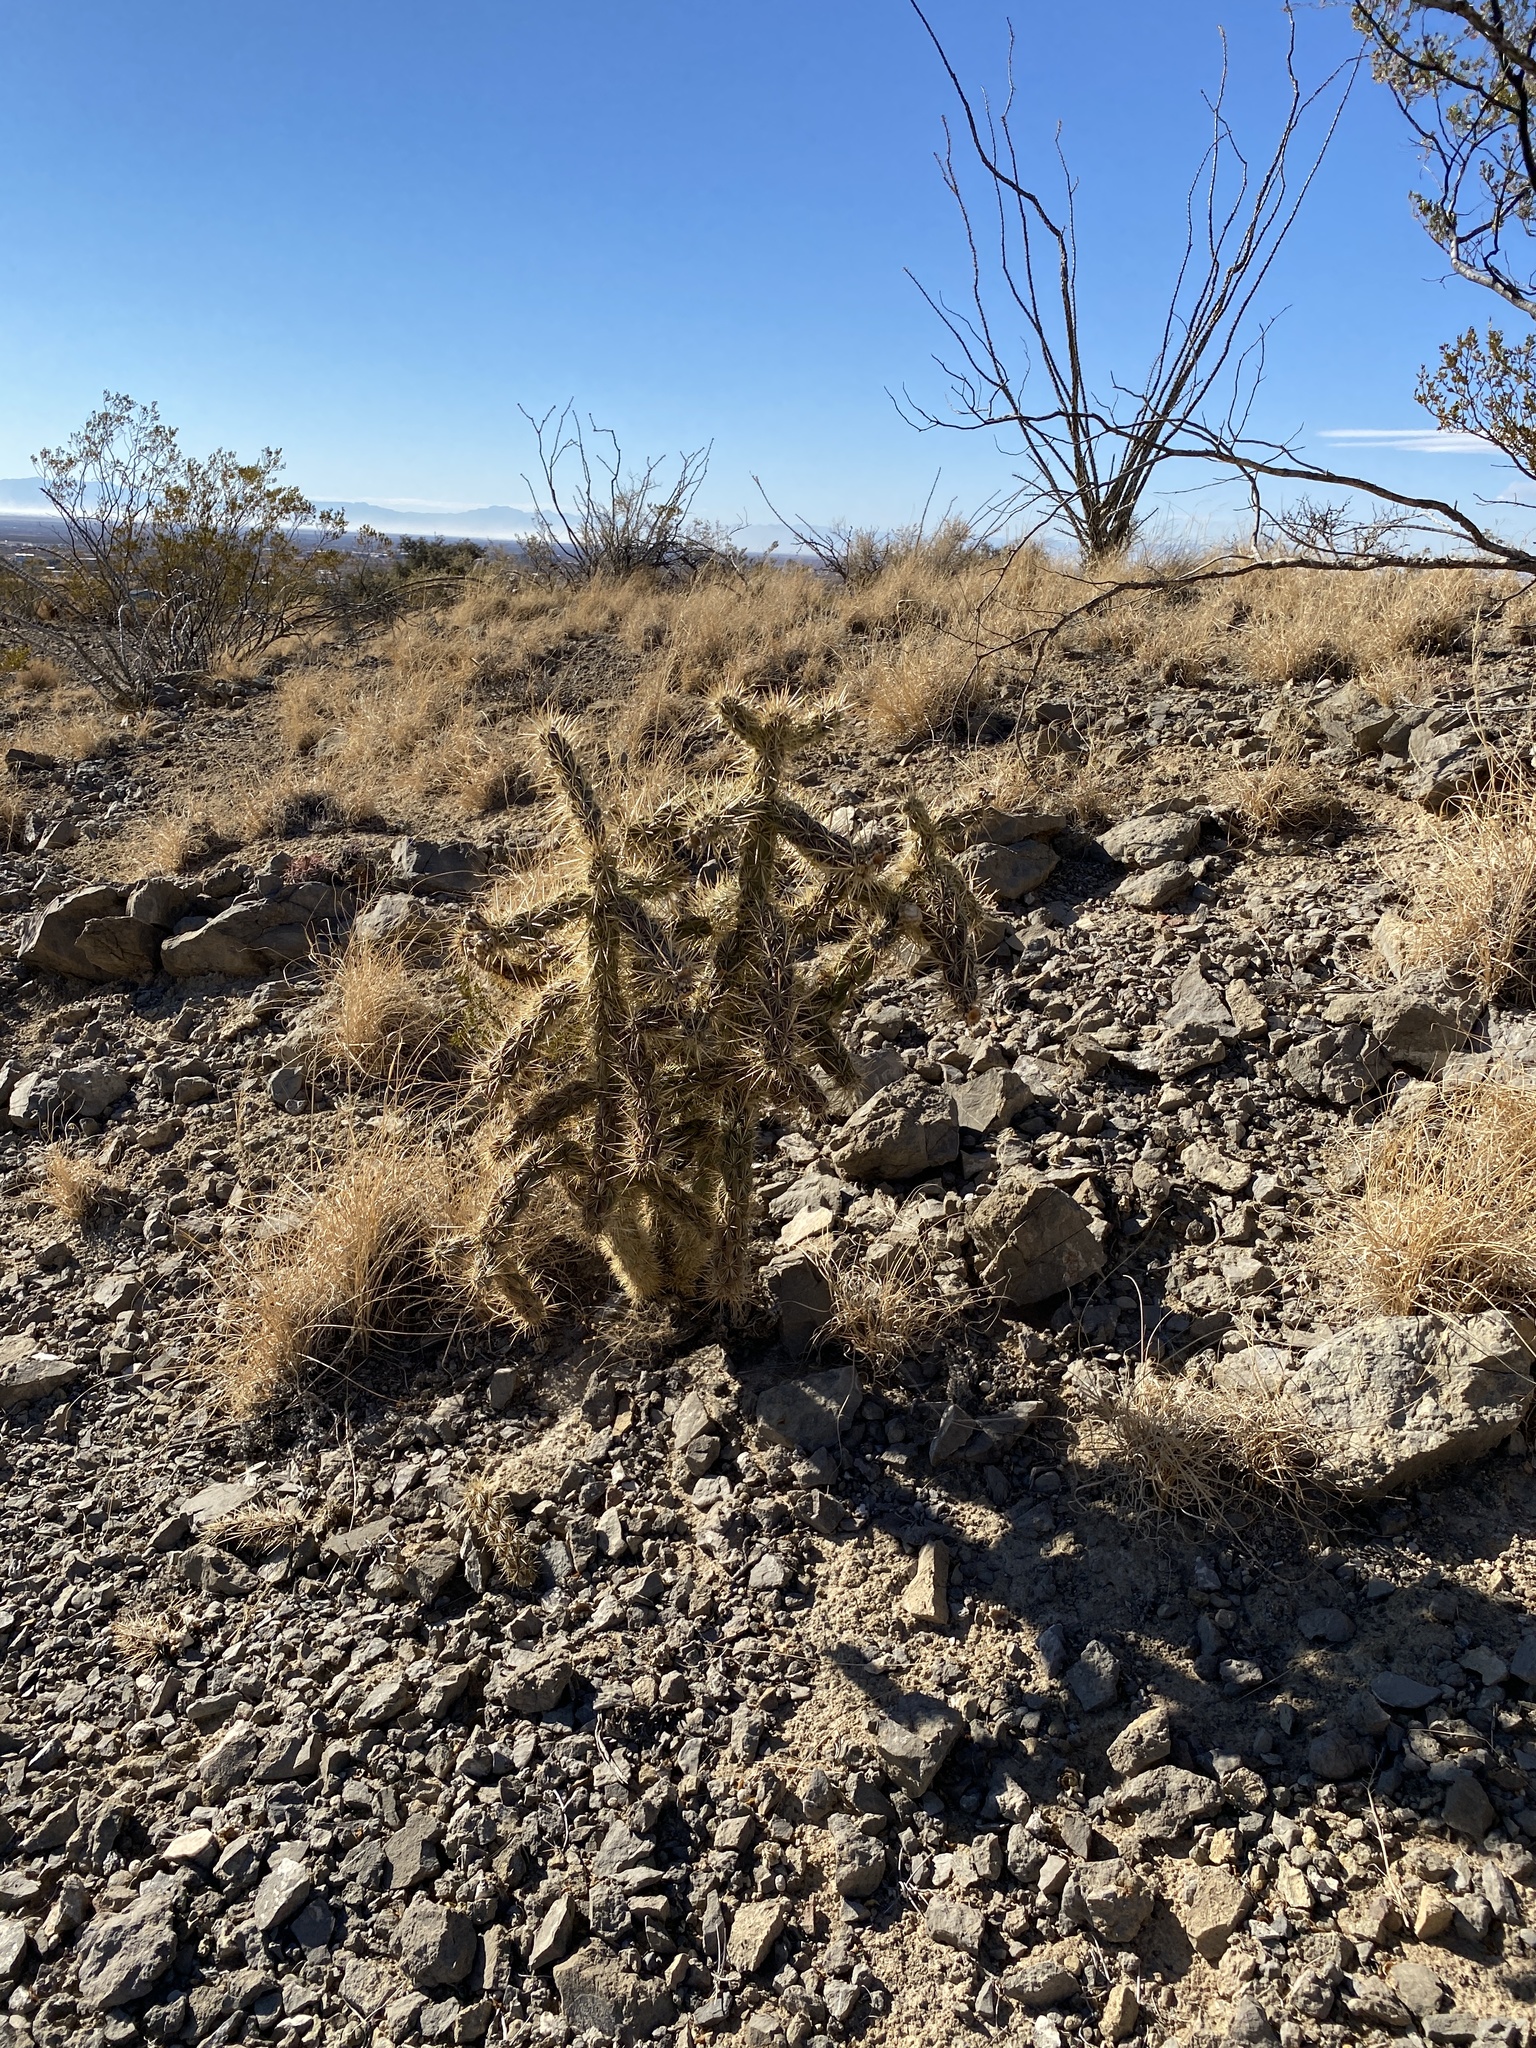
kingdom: Plantae
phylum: Tracheophyta
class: Magnoliopsida
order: Caryophyllales
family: Cactaceae
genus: Cylindropuntia
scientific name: Cylindropuntia imbricata
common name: Candelabrum cactus
